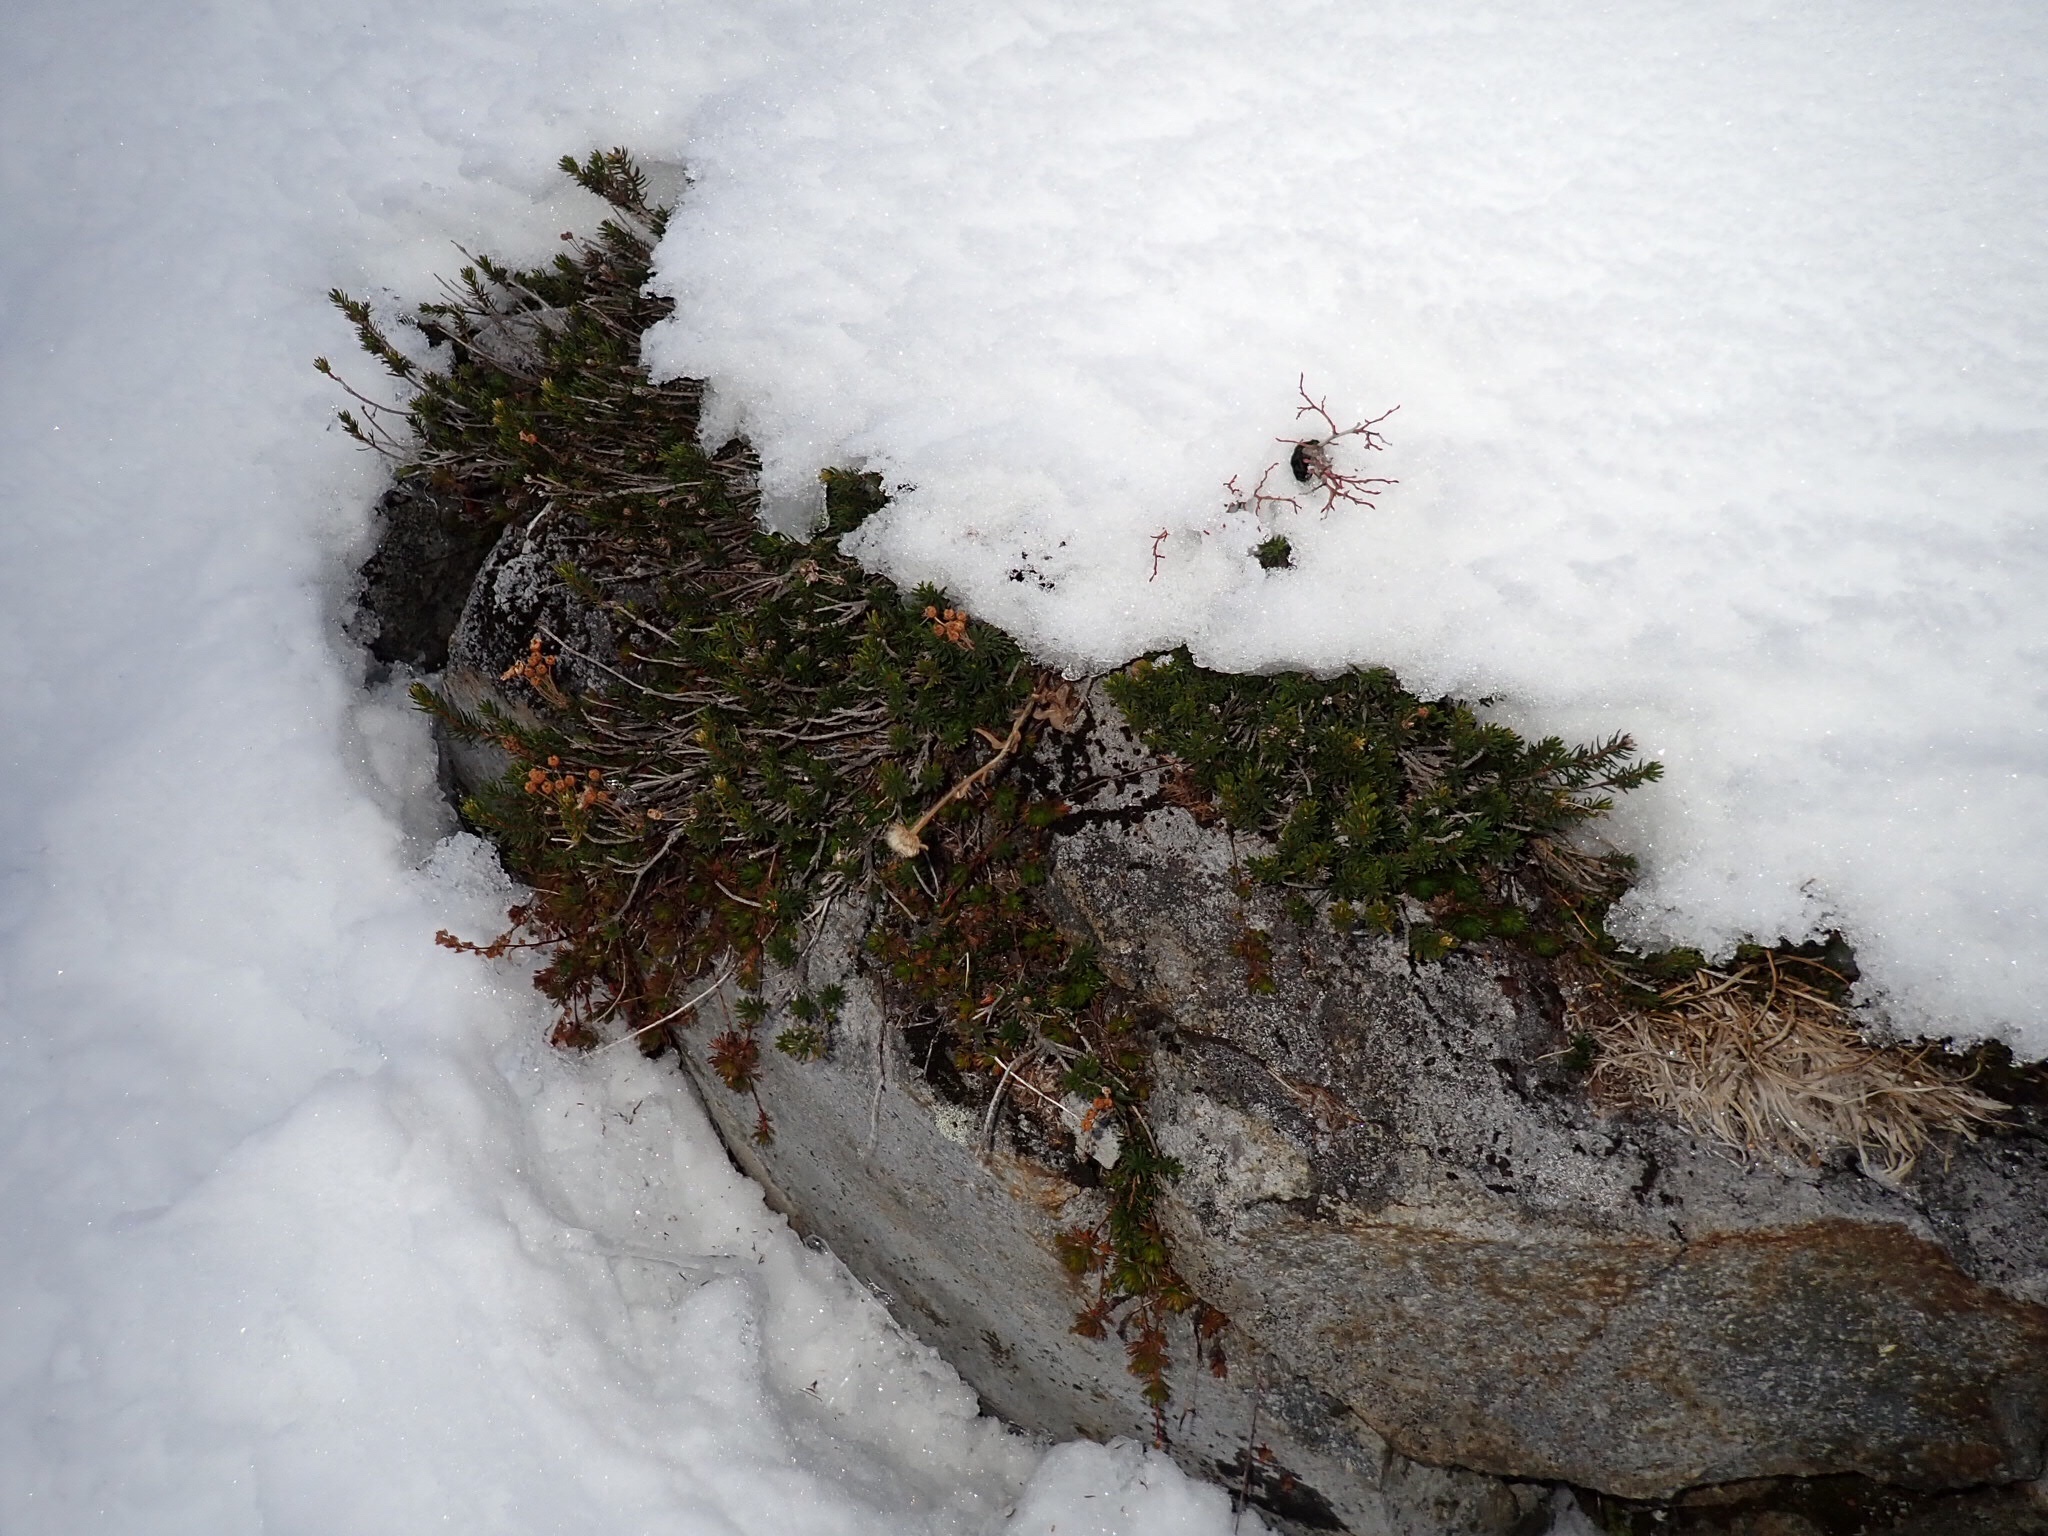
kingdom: Plantae
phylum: Tracheophyta
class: Magnoliopsida
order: Ericales
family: Ericaceae
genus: Phyllodoce
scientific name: Phyllodoce empetriformis
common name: Pink mountain heather
